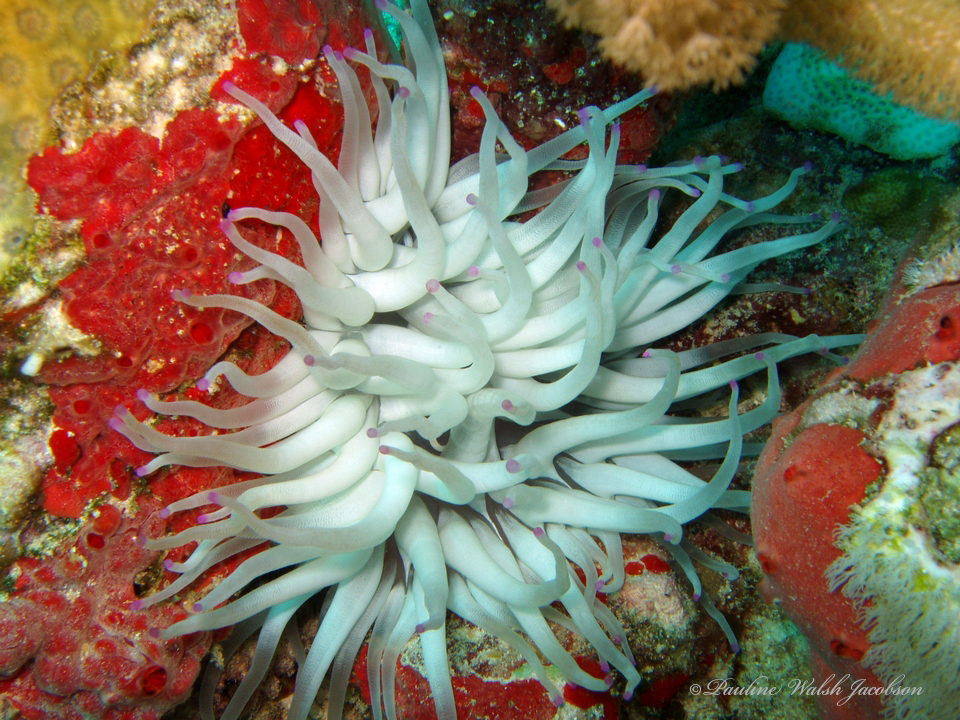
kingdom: Animalia
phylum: Cnidaria
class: Anthozoa
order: Actiniaria
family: Actiniidae
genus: Condylactis
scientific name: Condylactis gigantea
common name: Giant caribbean anemone
